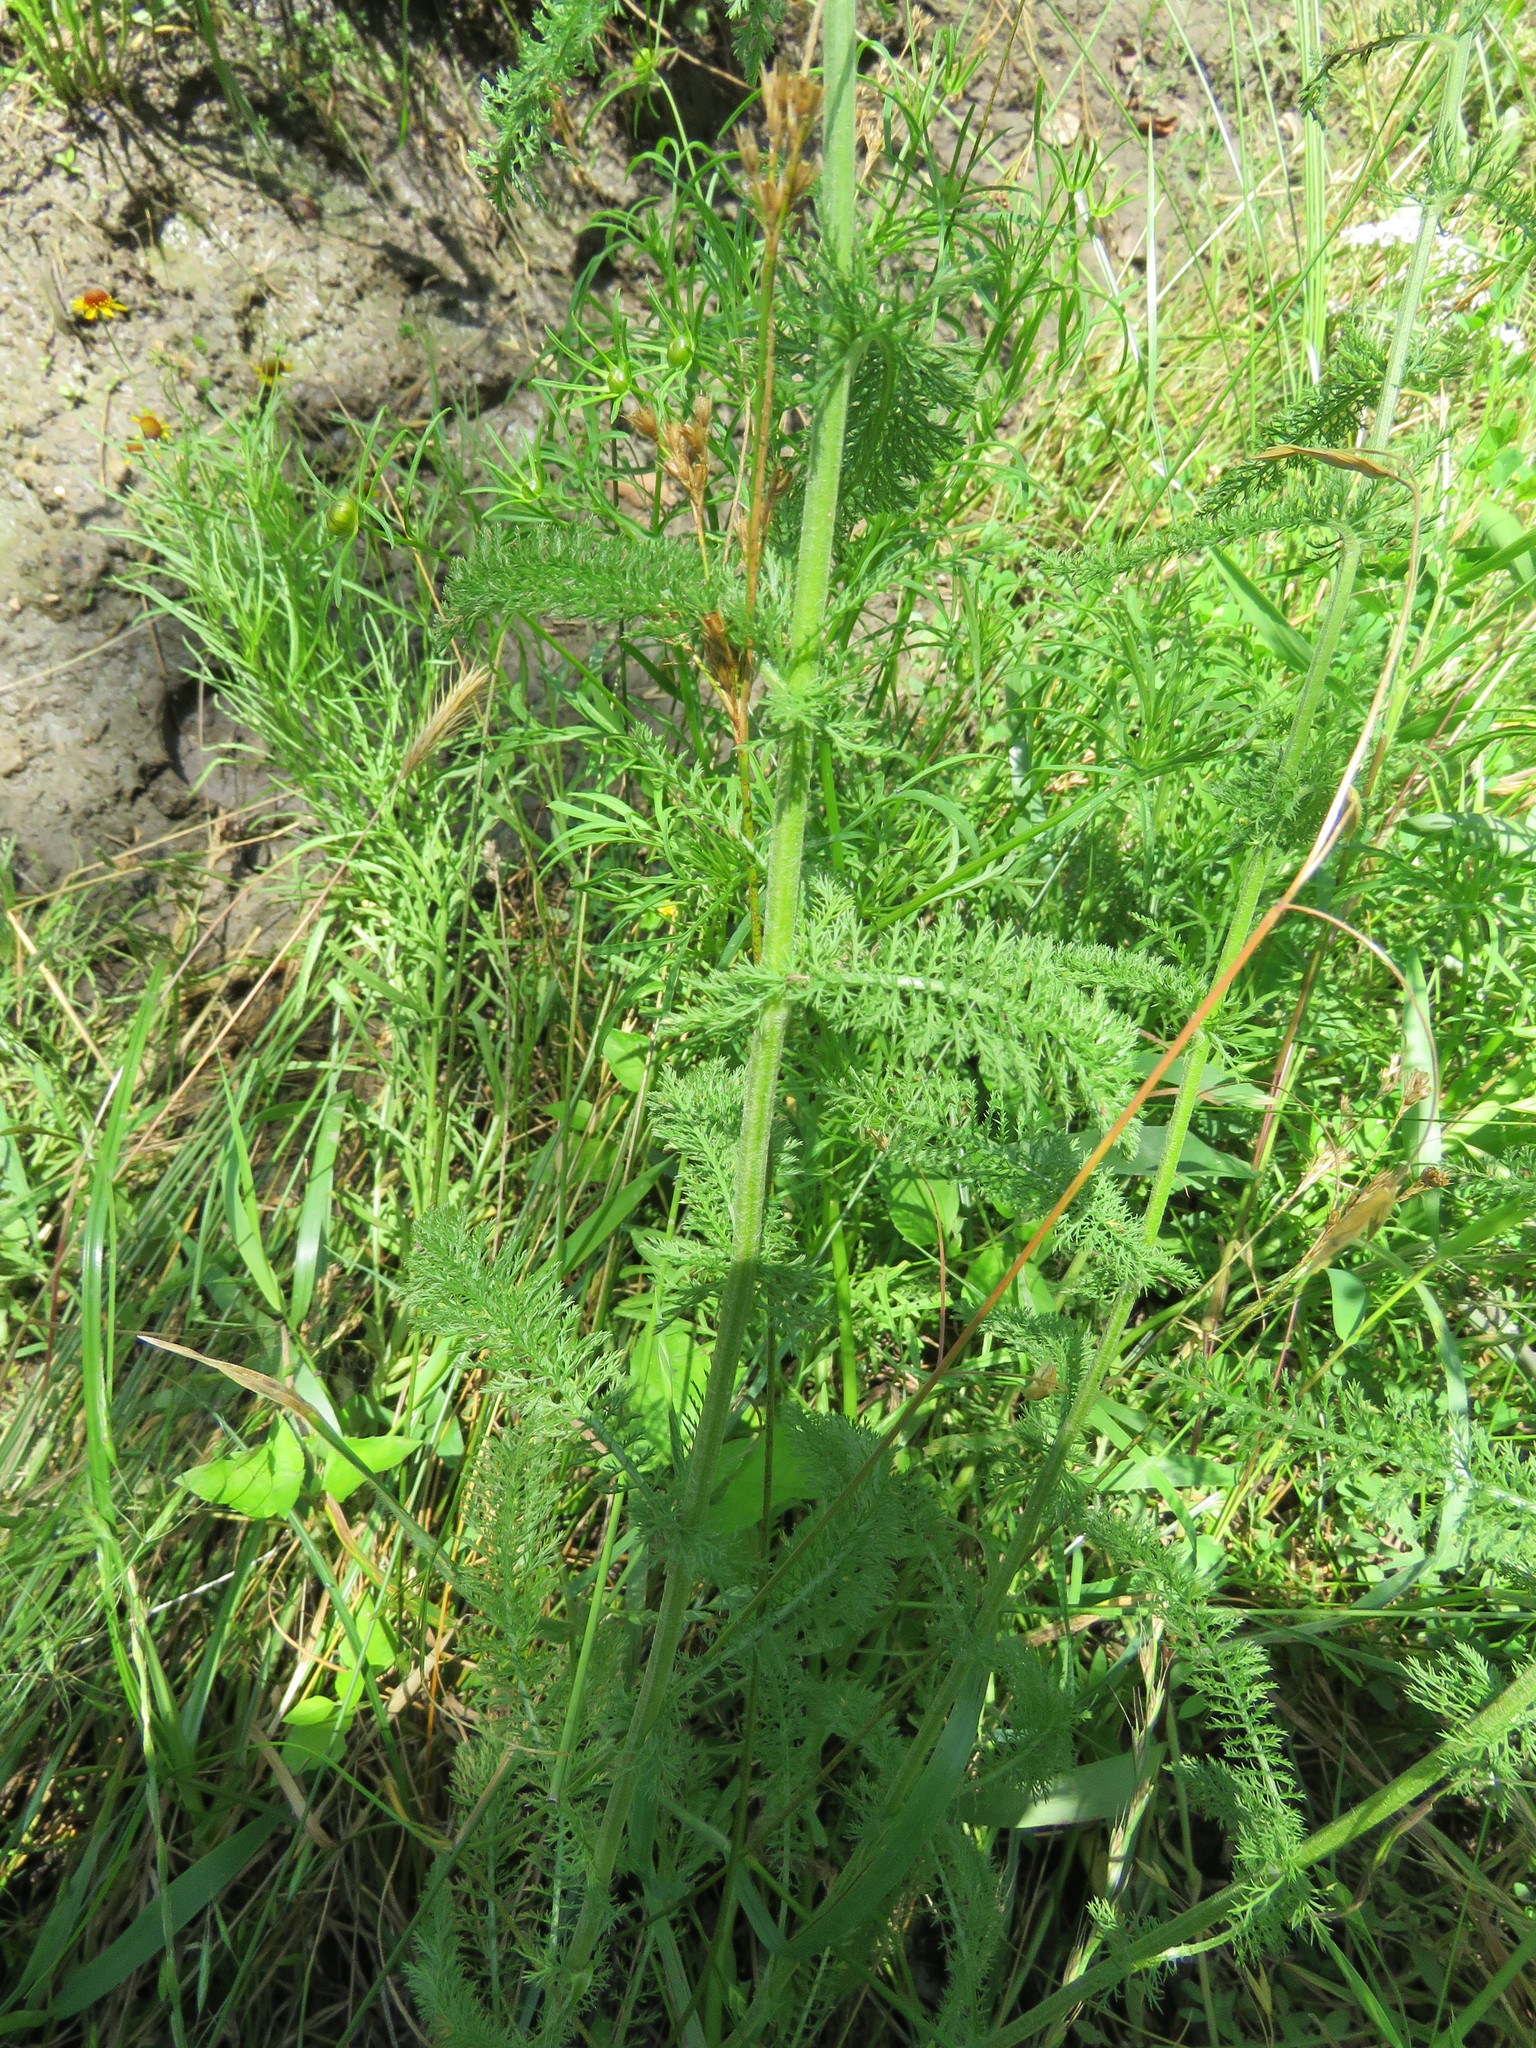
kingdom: Plantae
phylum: Tracheophyta
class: Magnoliopsida
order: Asterales
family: Asteraceae
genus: Achillea
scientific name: Achillea millefolium
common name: Yarrow
